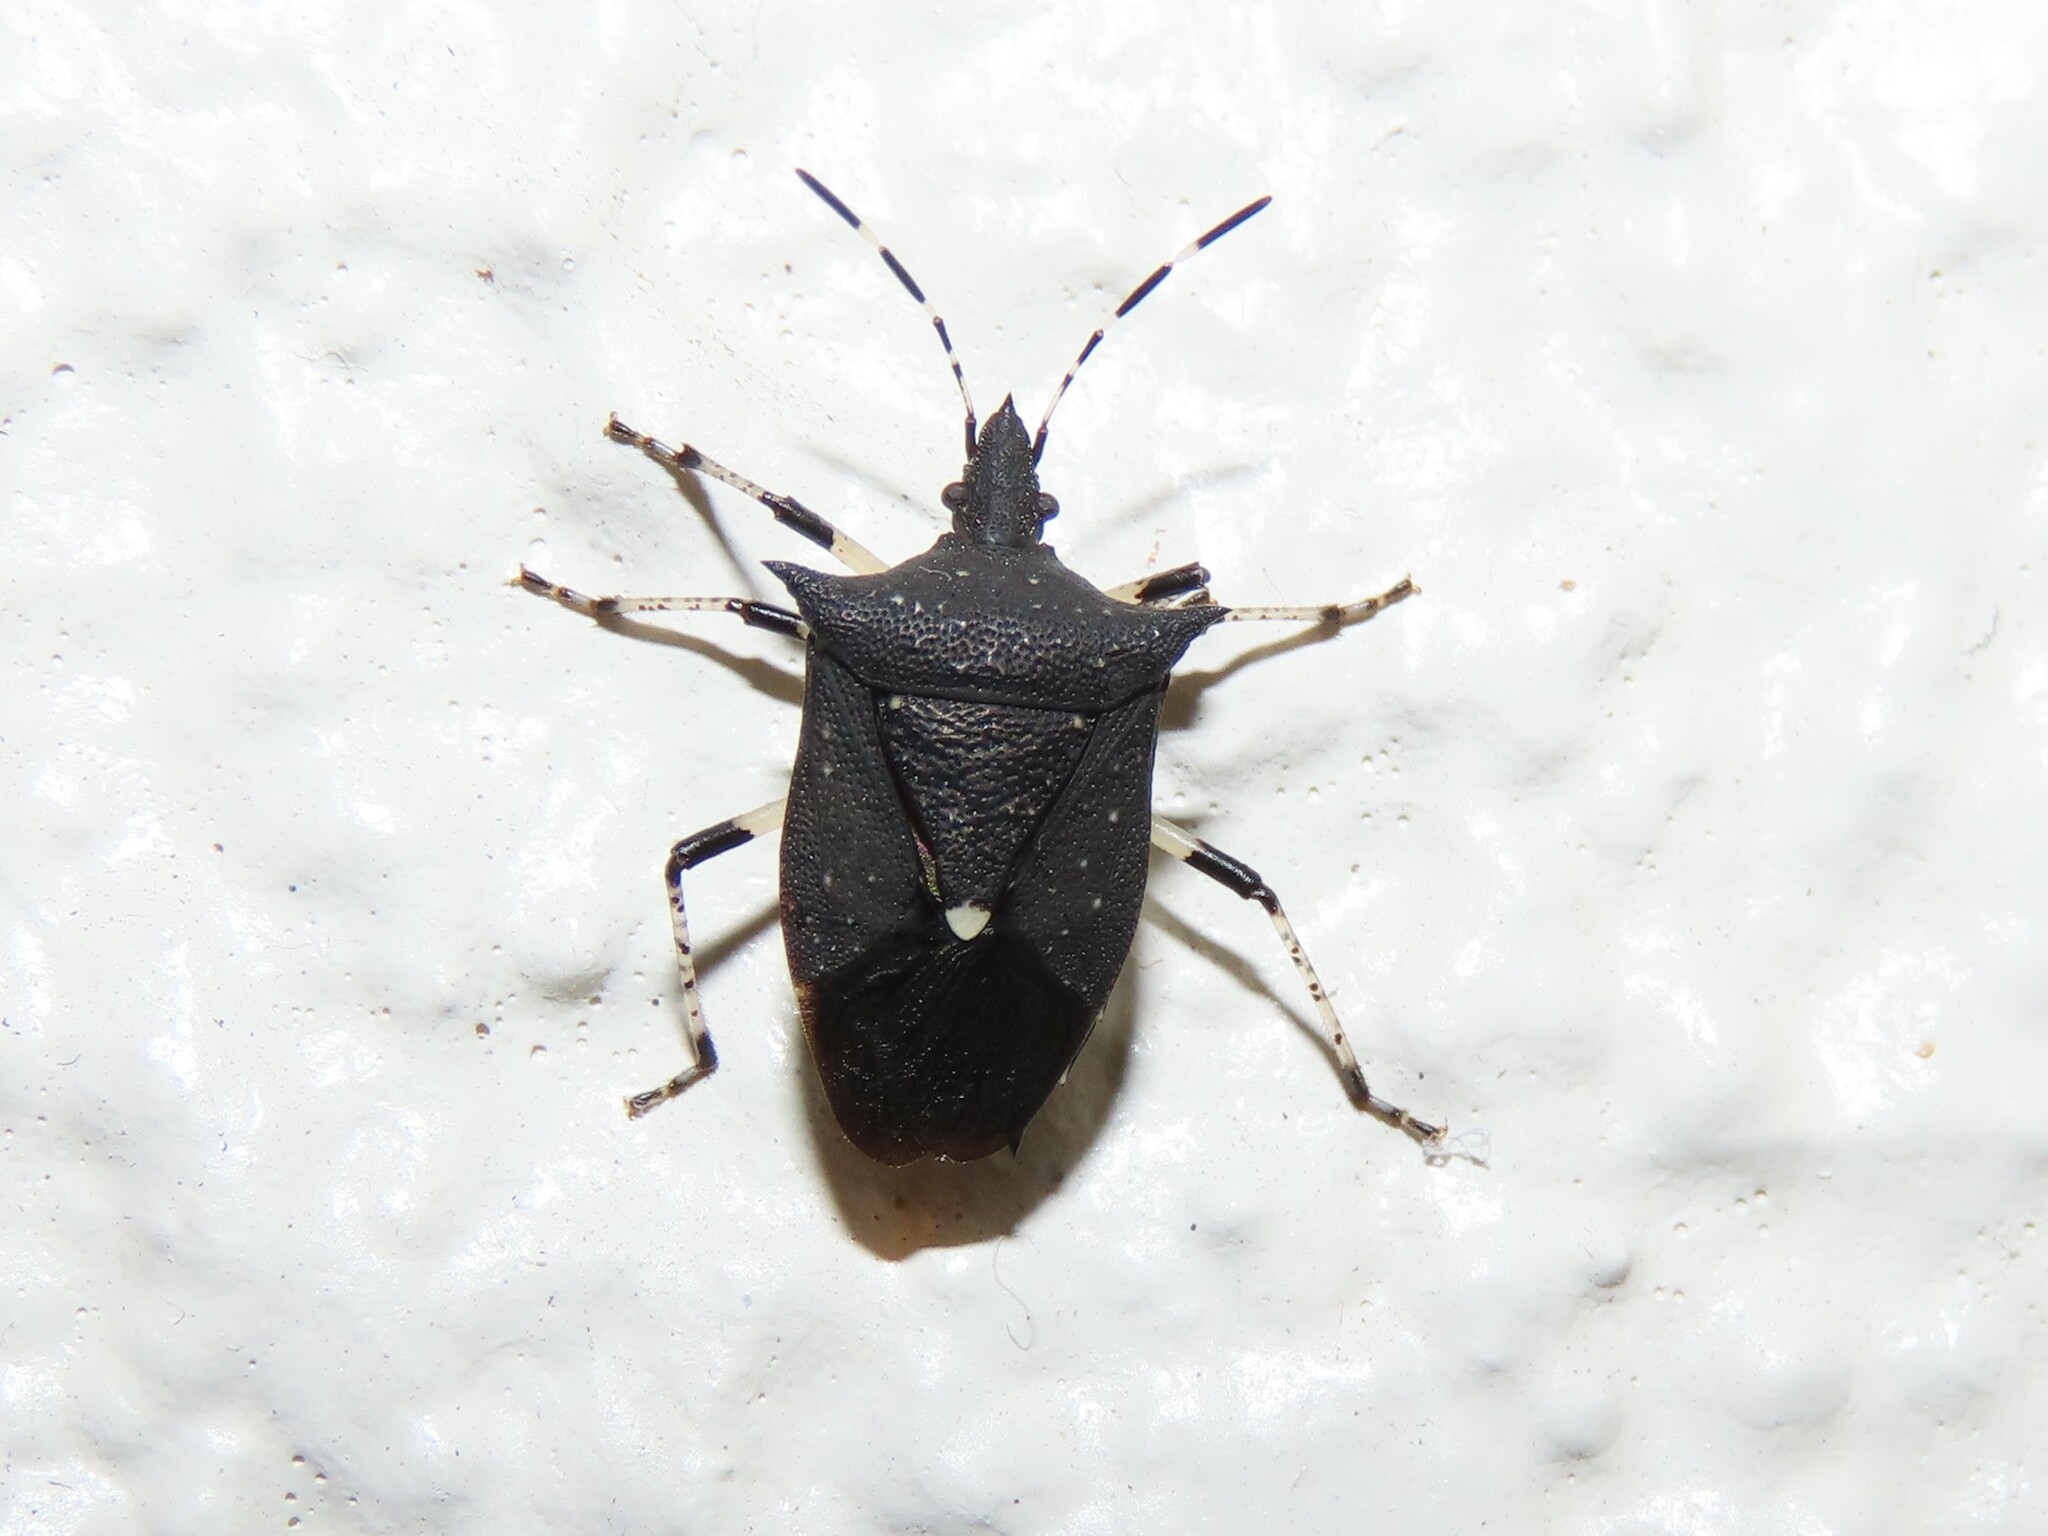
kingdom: Animalia
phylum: Arthropoda
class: Insecta
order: Hemiptera
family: Pentatomidae
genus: Proxys
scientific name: Proxys punctulatus
